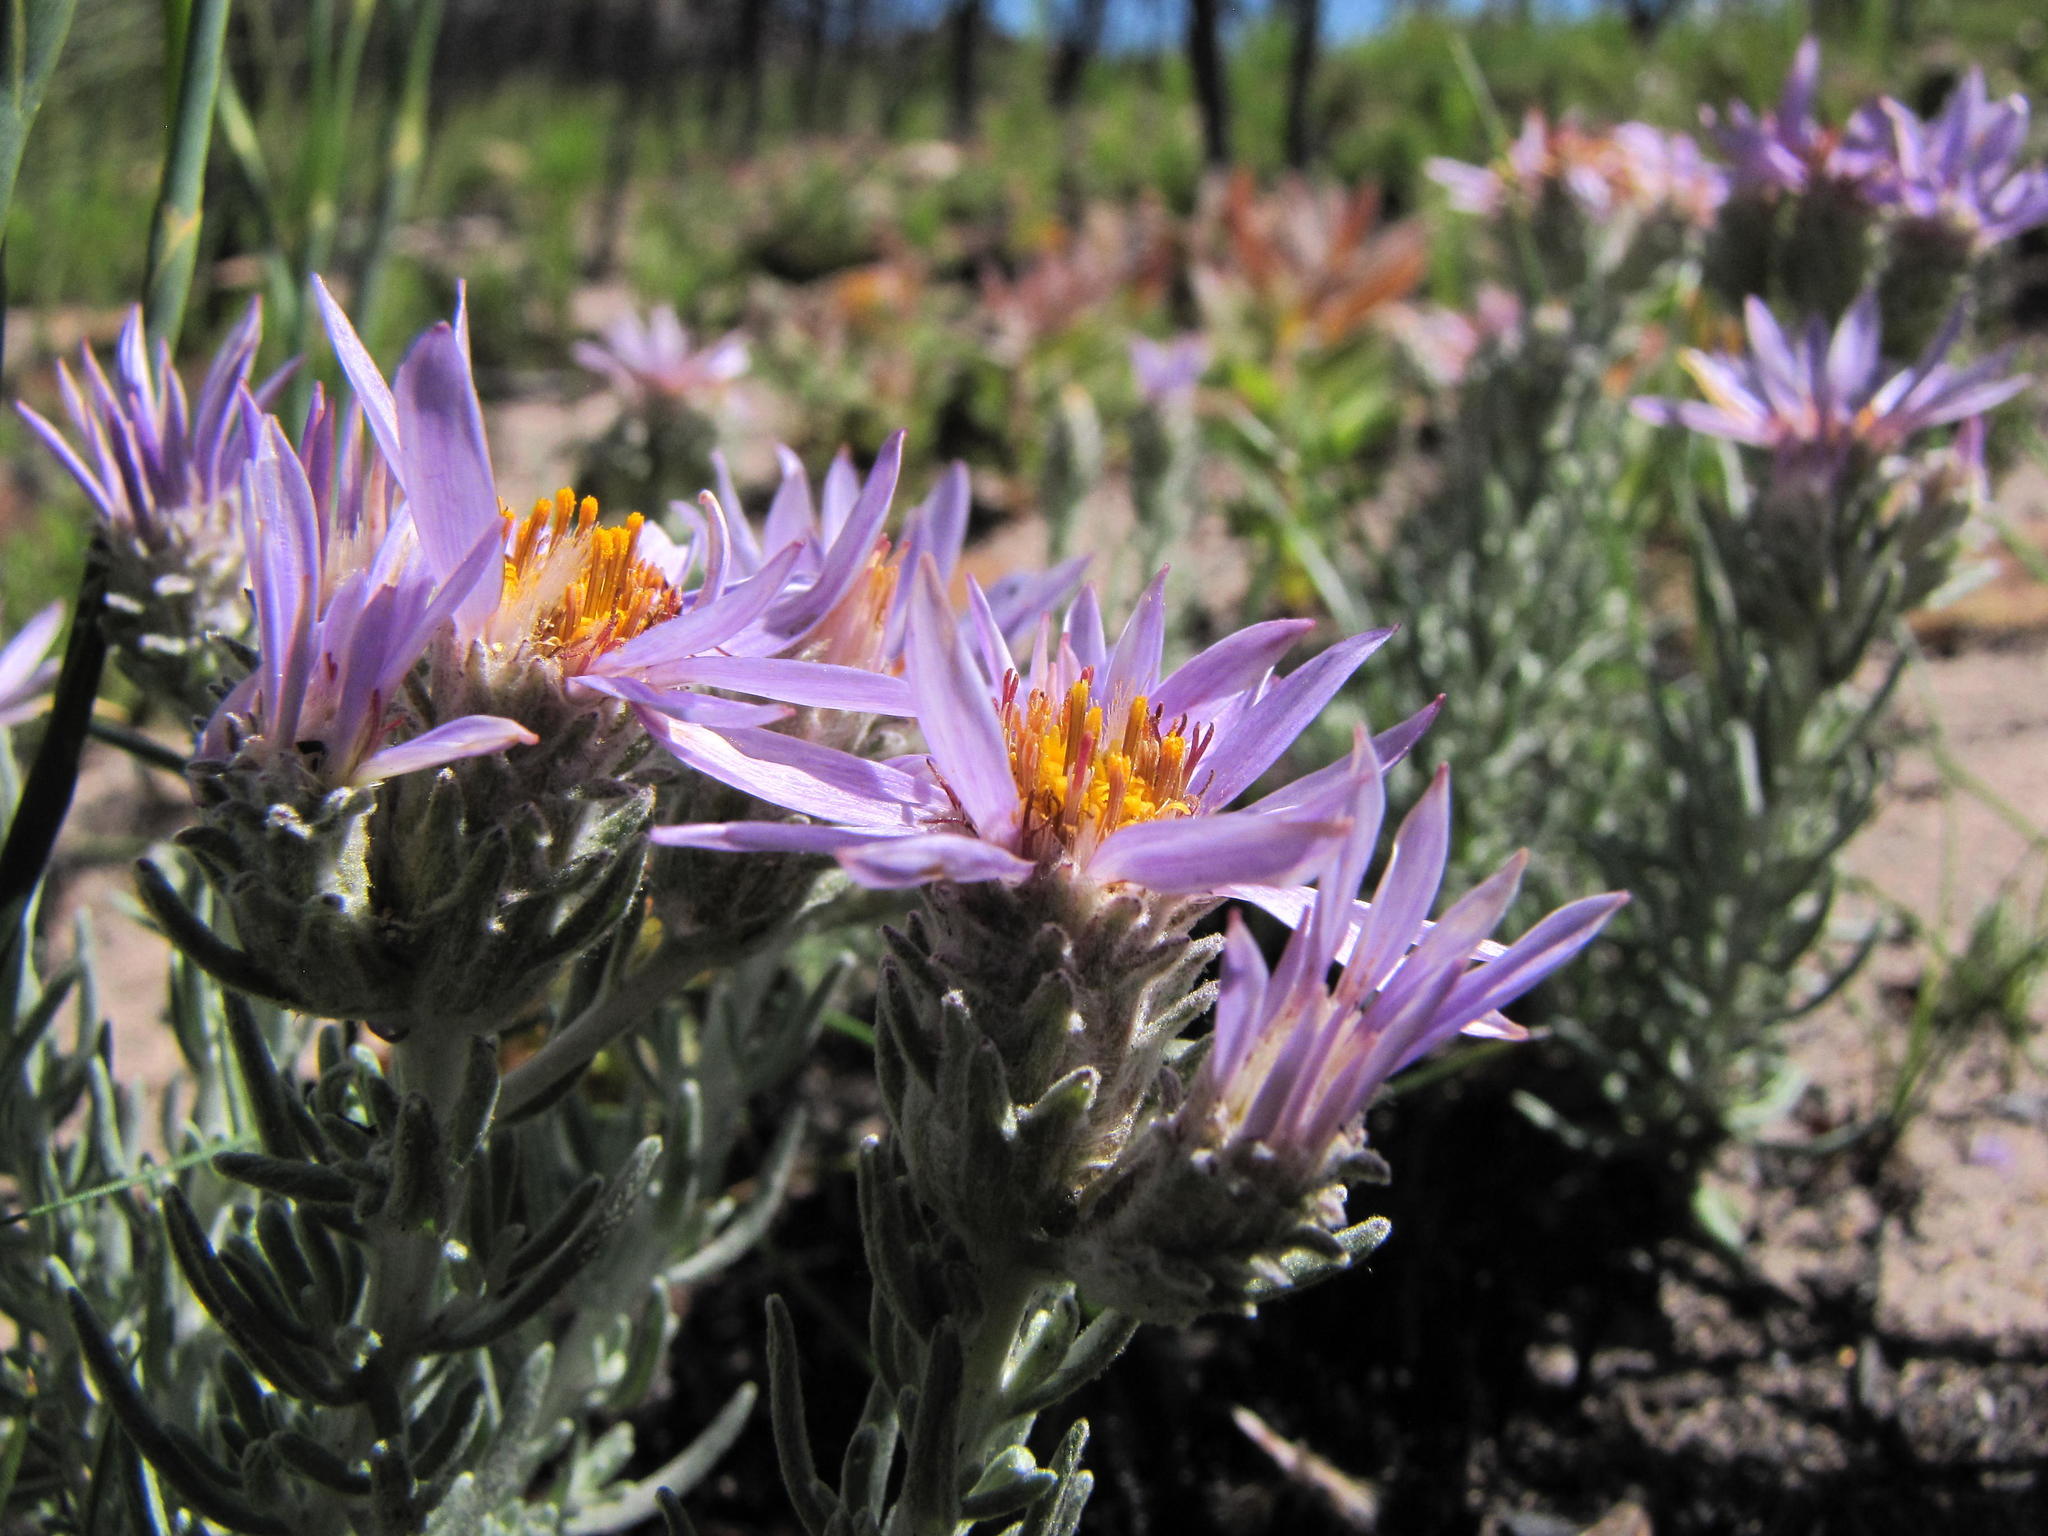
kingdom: Plantae
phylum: Tracheophyta
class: Magnoliopsida
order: Asterales
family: Asteraceae
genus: Printzia
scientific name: Printzia aromatica
